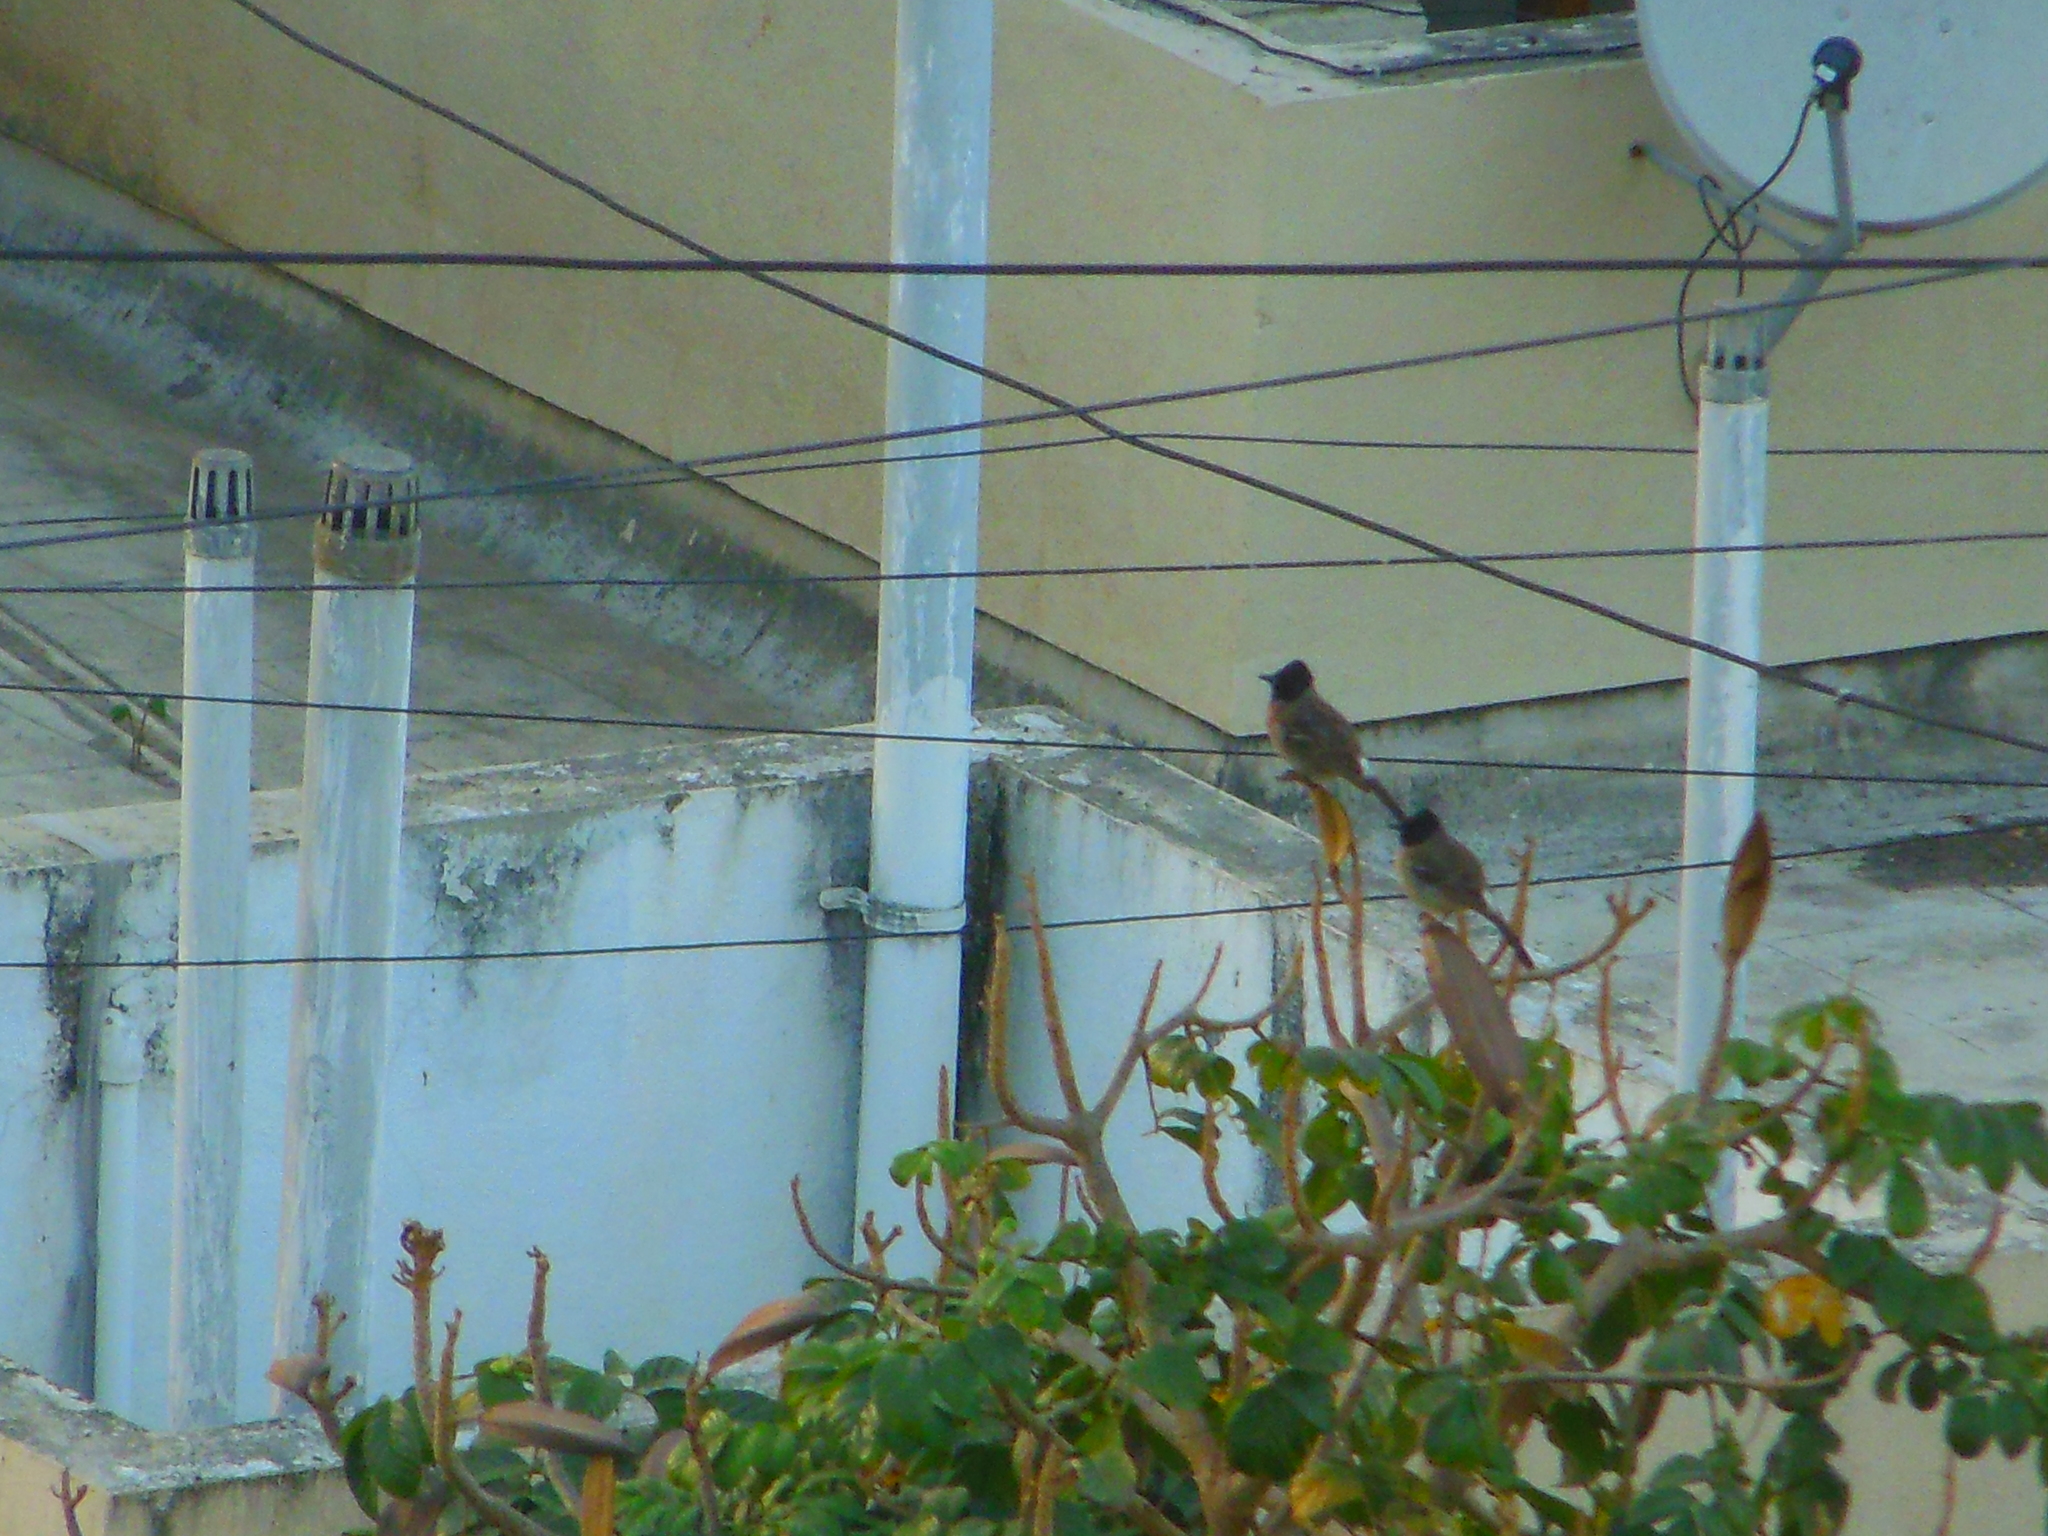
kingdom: Animalia
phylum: Chordata
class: Aves
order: Passeriformes
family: Pycnonotidae
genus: Pycnonotus
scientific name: Pycnonotus cafer
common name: Red-vented bulbul
